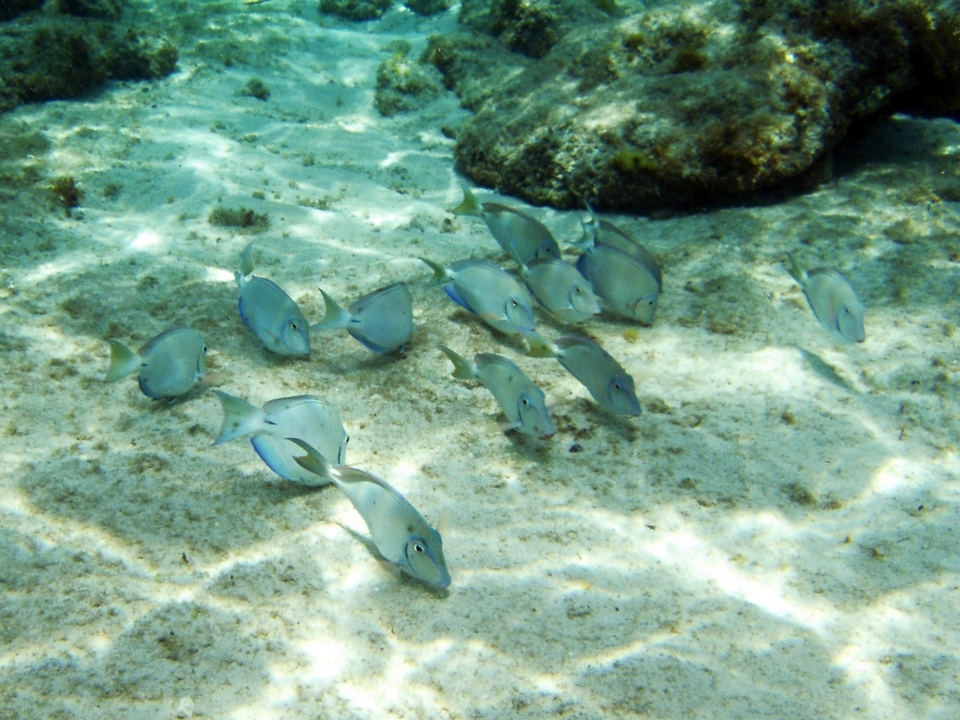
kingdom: Animalia
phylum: Chordata
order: Perciformes
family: Acanthuridae
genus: Acanthurus
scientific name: Acanthurus bahianus
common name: Ocean surgeon
